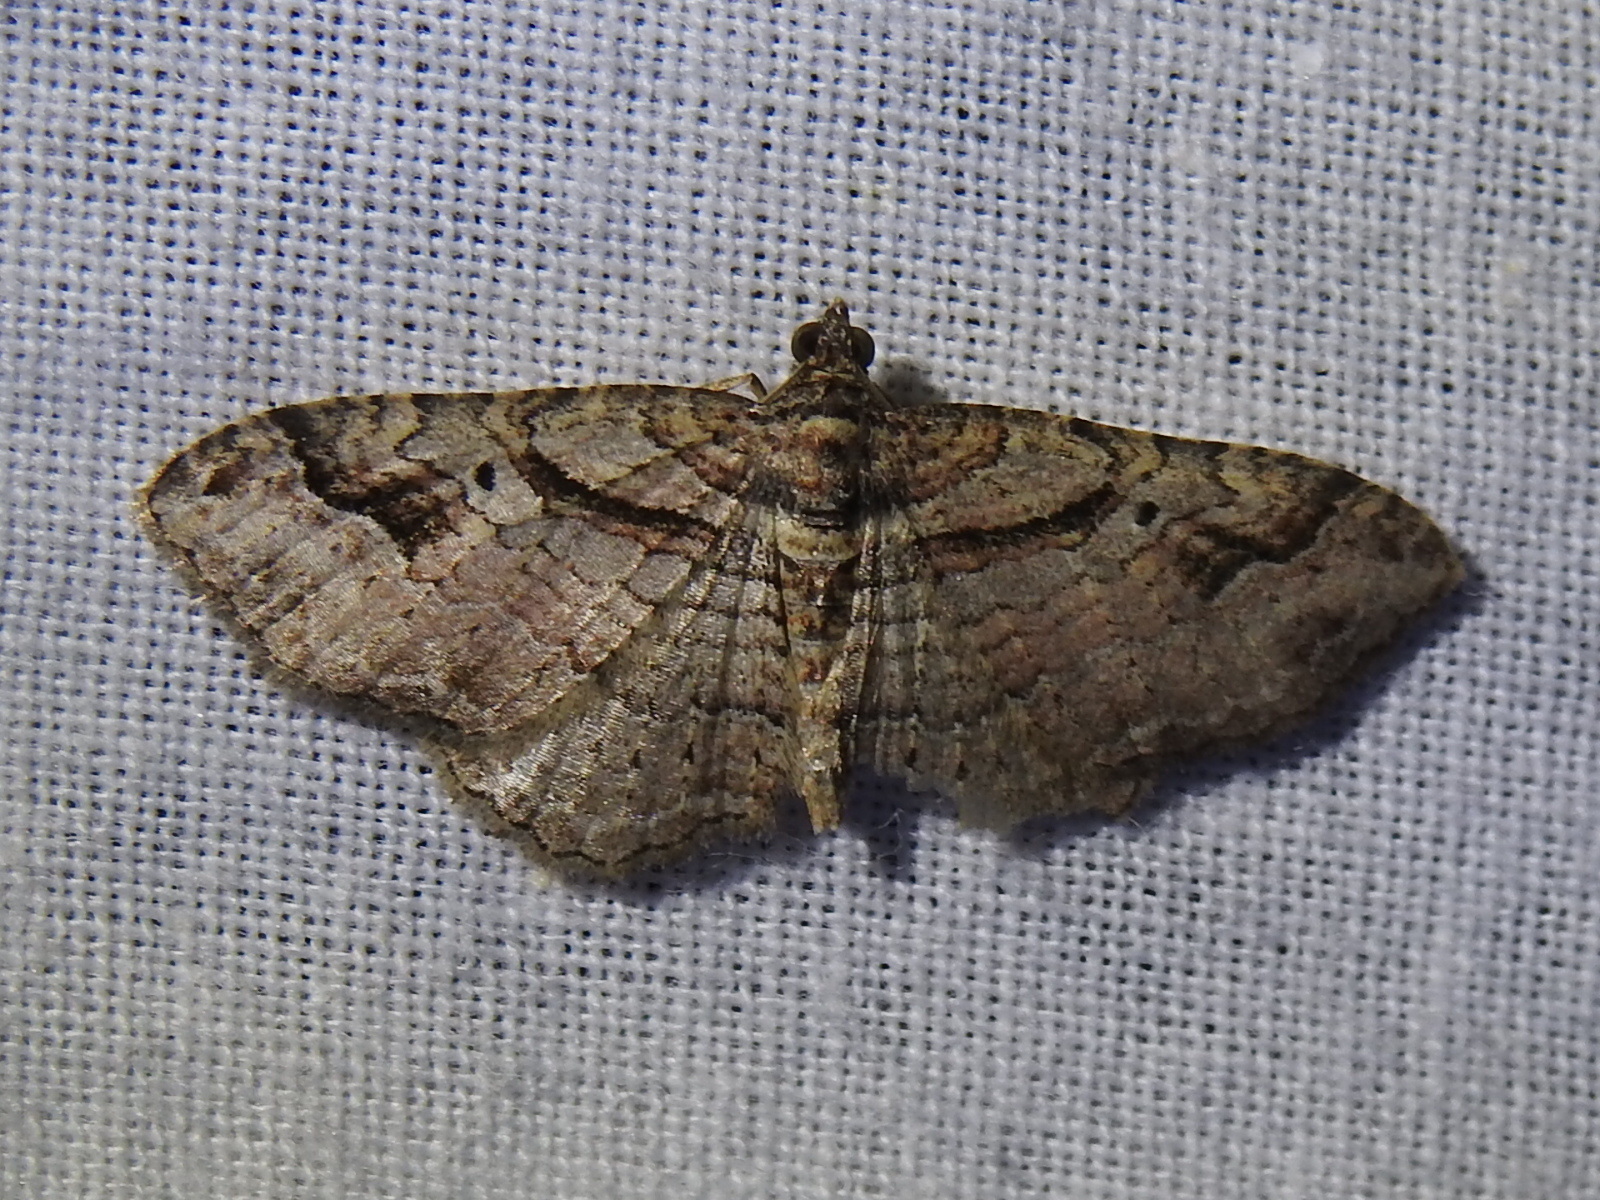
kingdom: Animalia
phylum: Arthropoda
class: Insecta
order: Lepidoptera
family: Geometridae
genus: Costaconvexa
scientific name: Costaconvexa centrostrigaria
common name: Bent-line carpet
